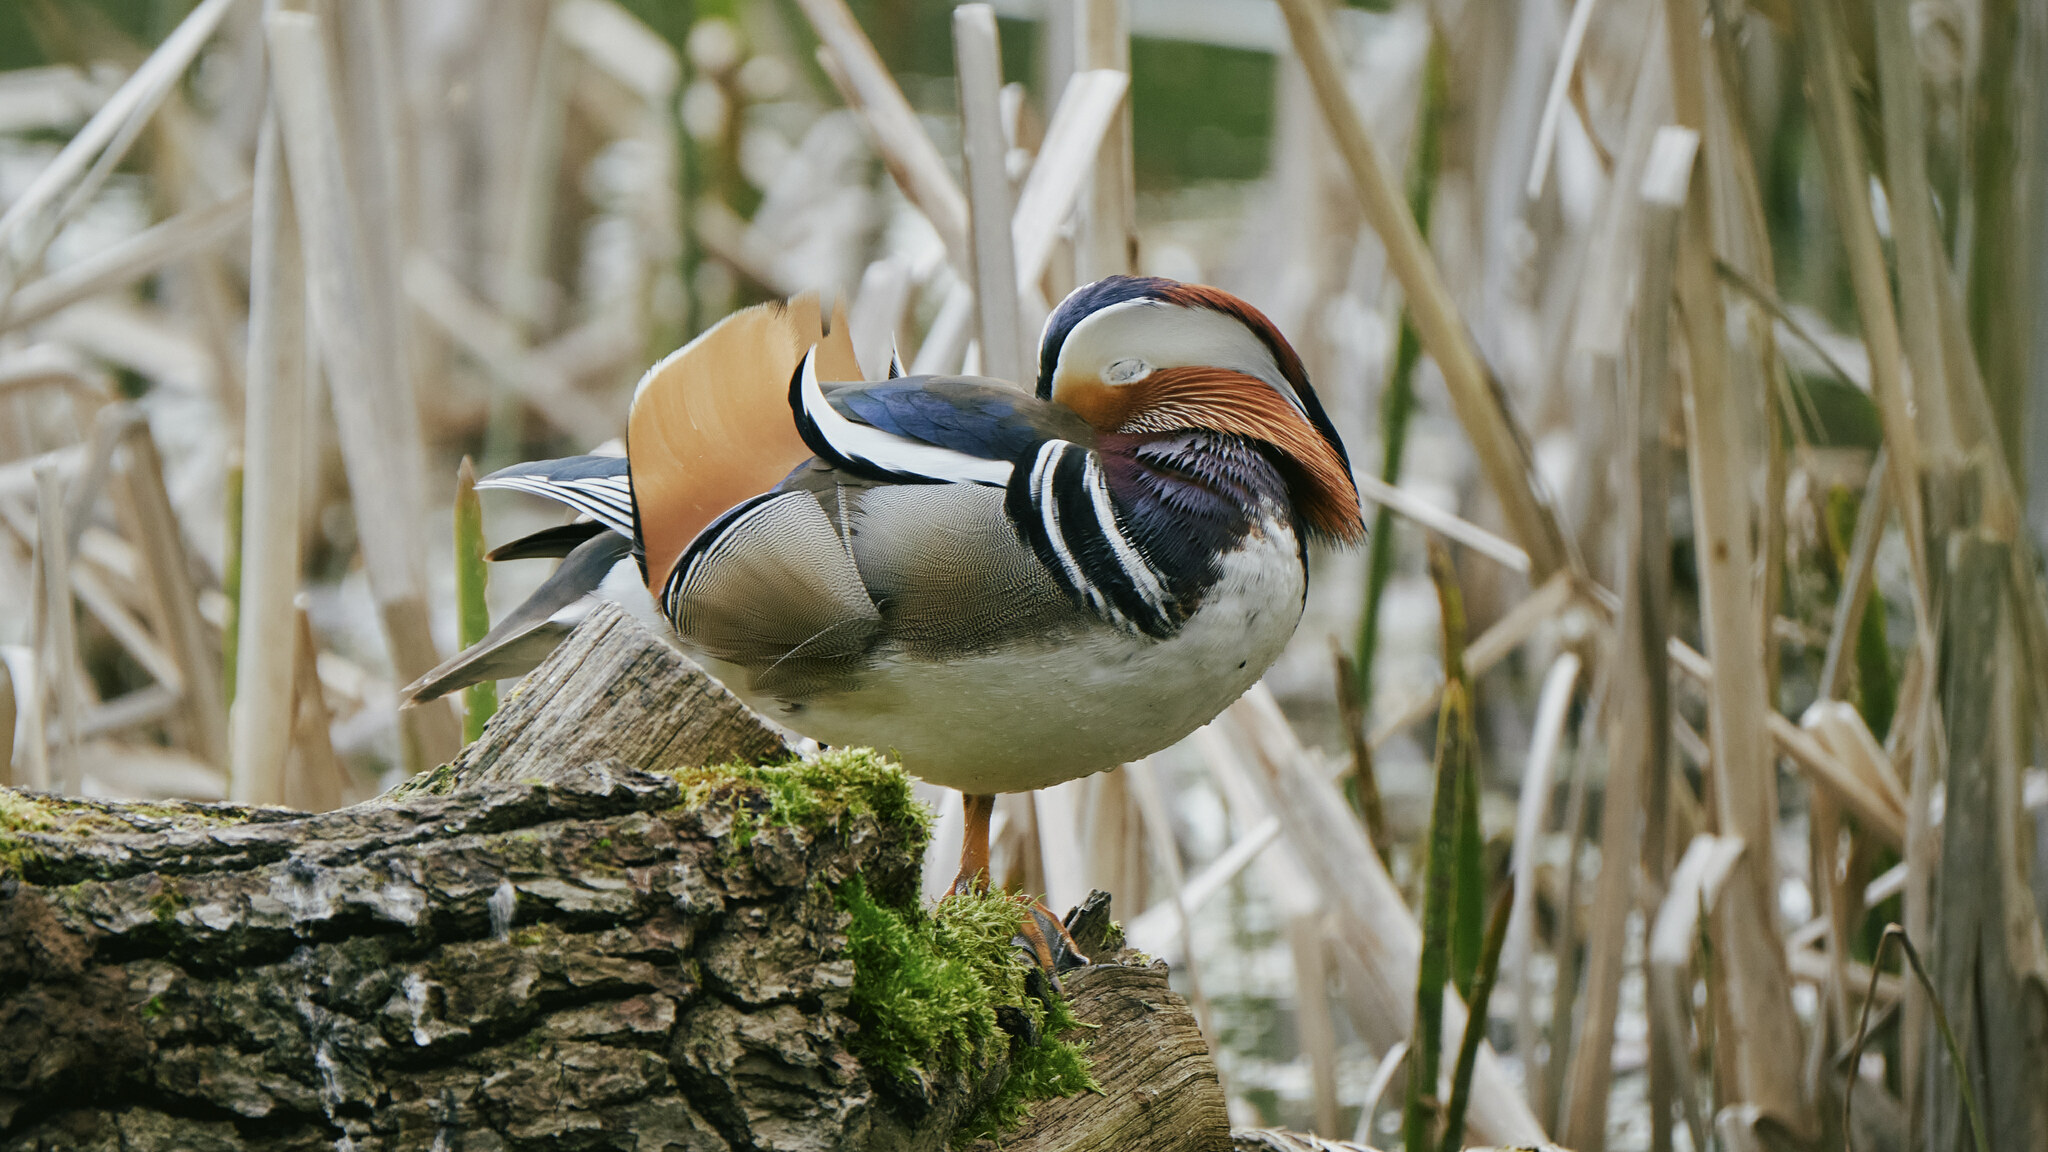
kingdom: Animalia
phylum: Chordata
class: Aves
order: Anseriformes
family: Anatidae
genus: Aix
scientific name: Aix galericulata
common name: Mandarin duck
